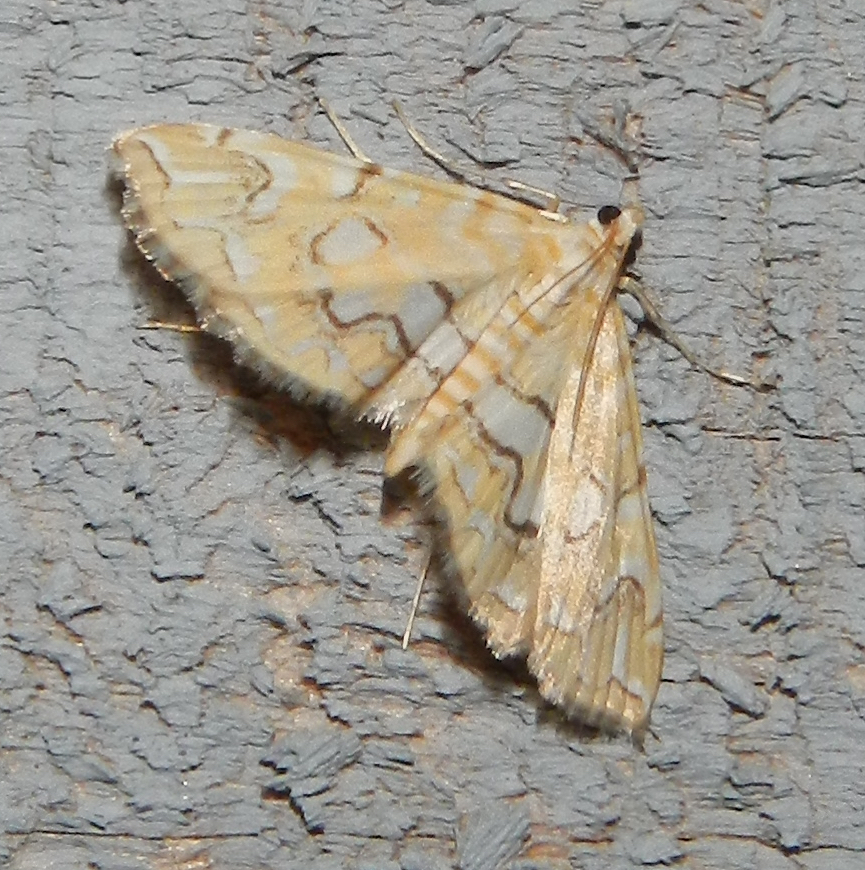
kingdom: Animalia
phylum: Arthropoda
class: Insecta
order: Lepidoptera
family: Crambidae
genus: Elophila
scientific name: Elophila icciusalis
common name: Pondside pyralid moth
